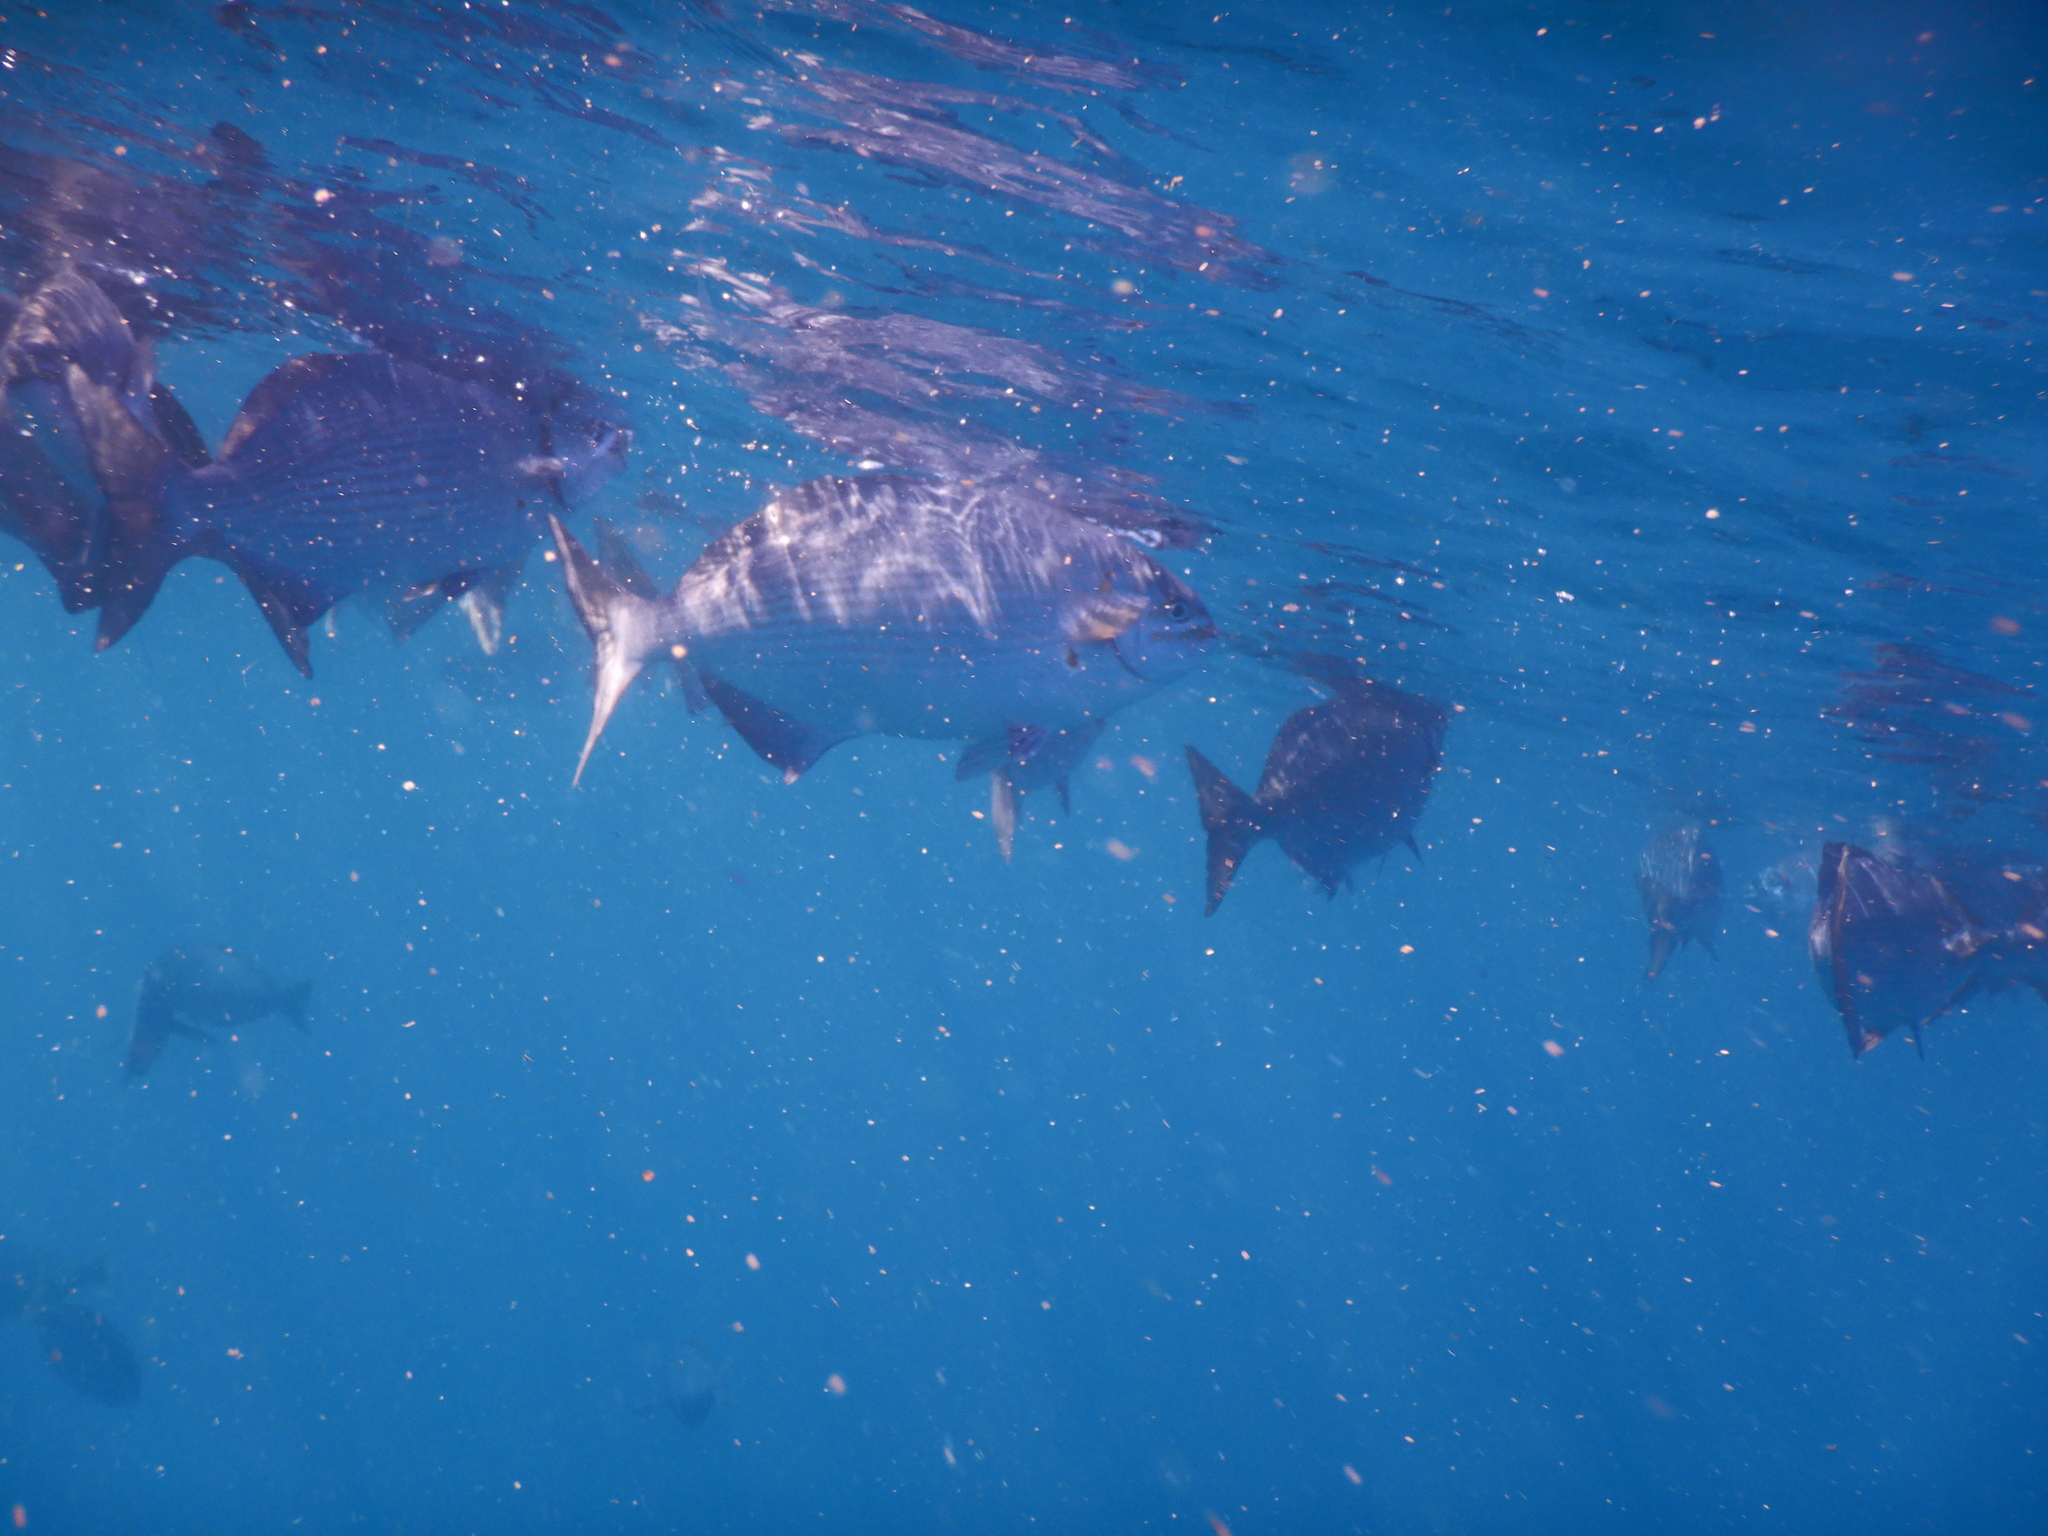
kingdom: Animalia
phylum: Chordata
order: Perciformes
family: Kyphosidae
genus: Kyphosus
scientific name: Kyphosus vaigiensis
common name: Brassy chub
